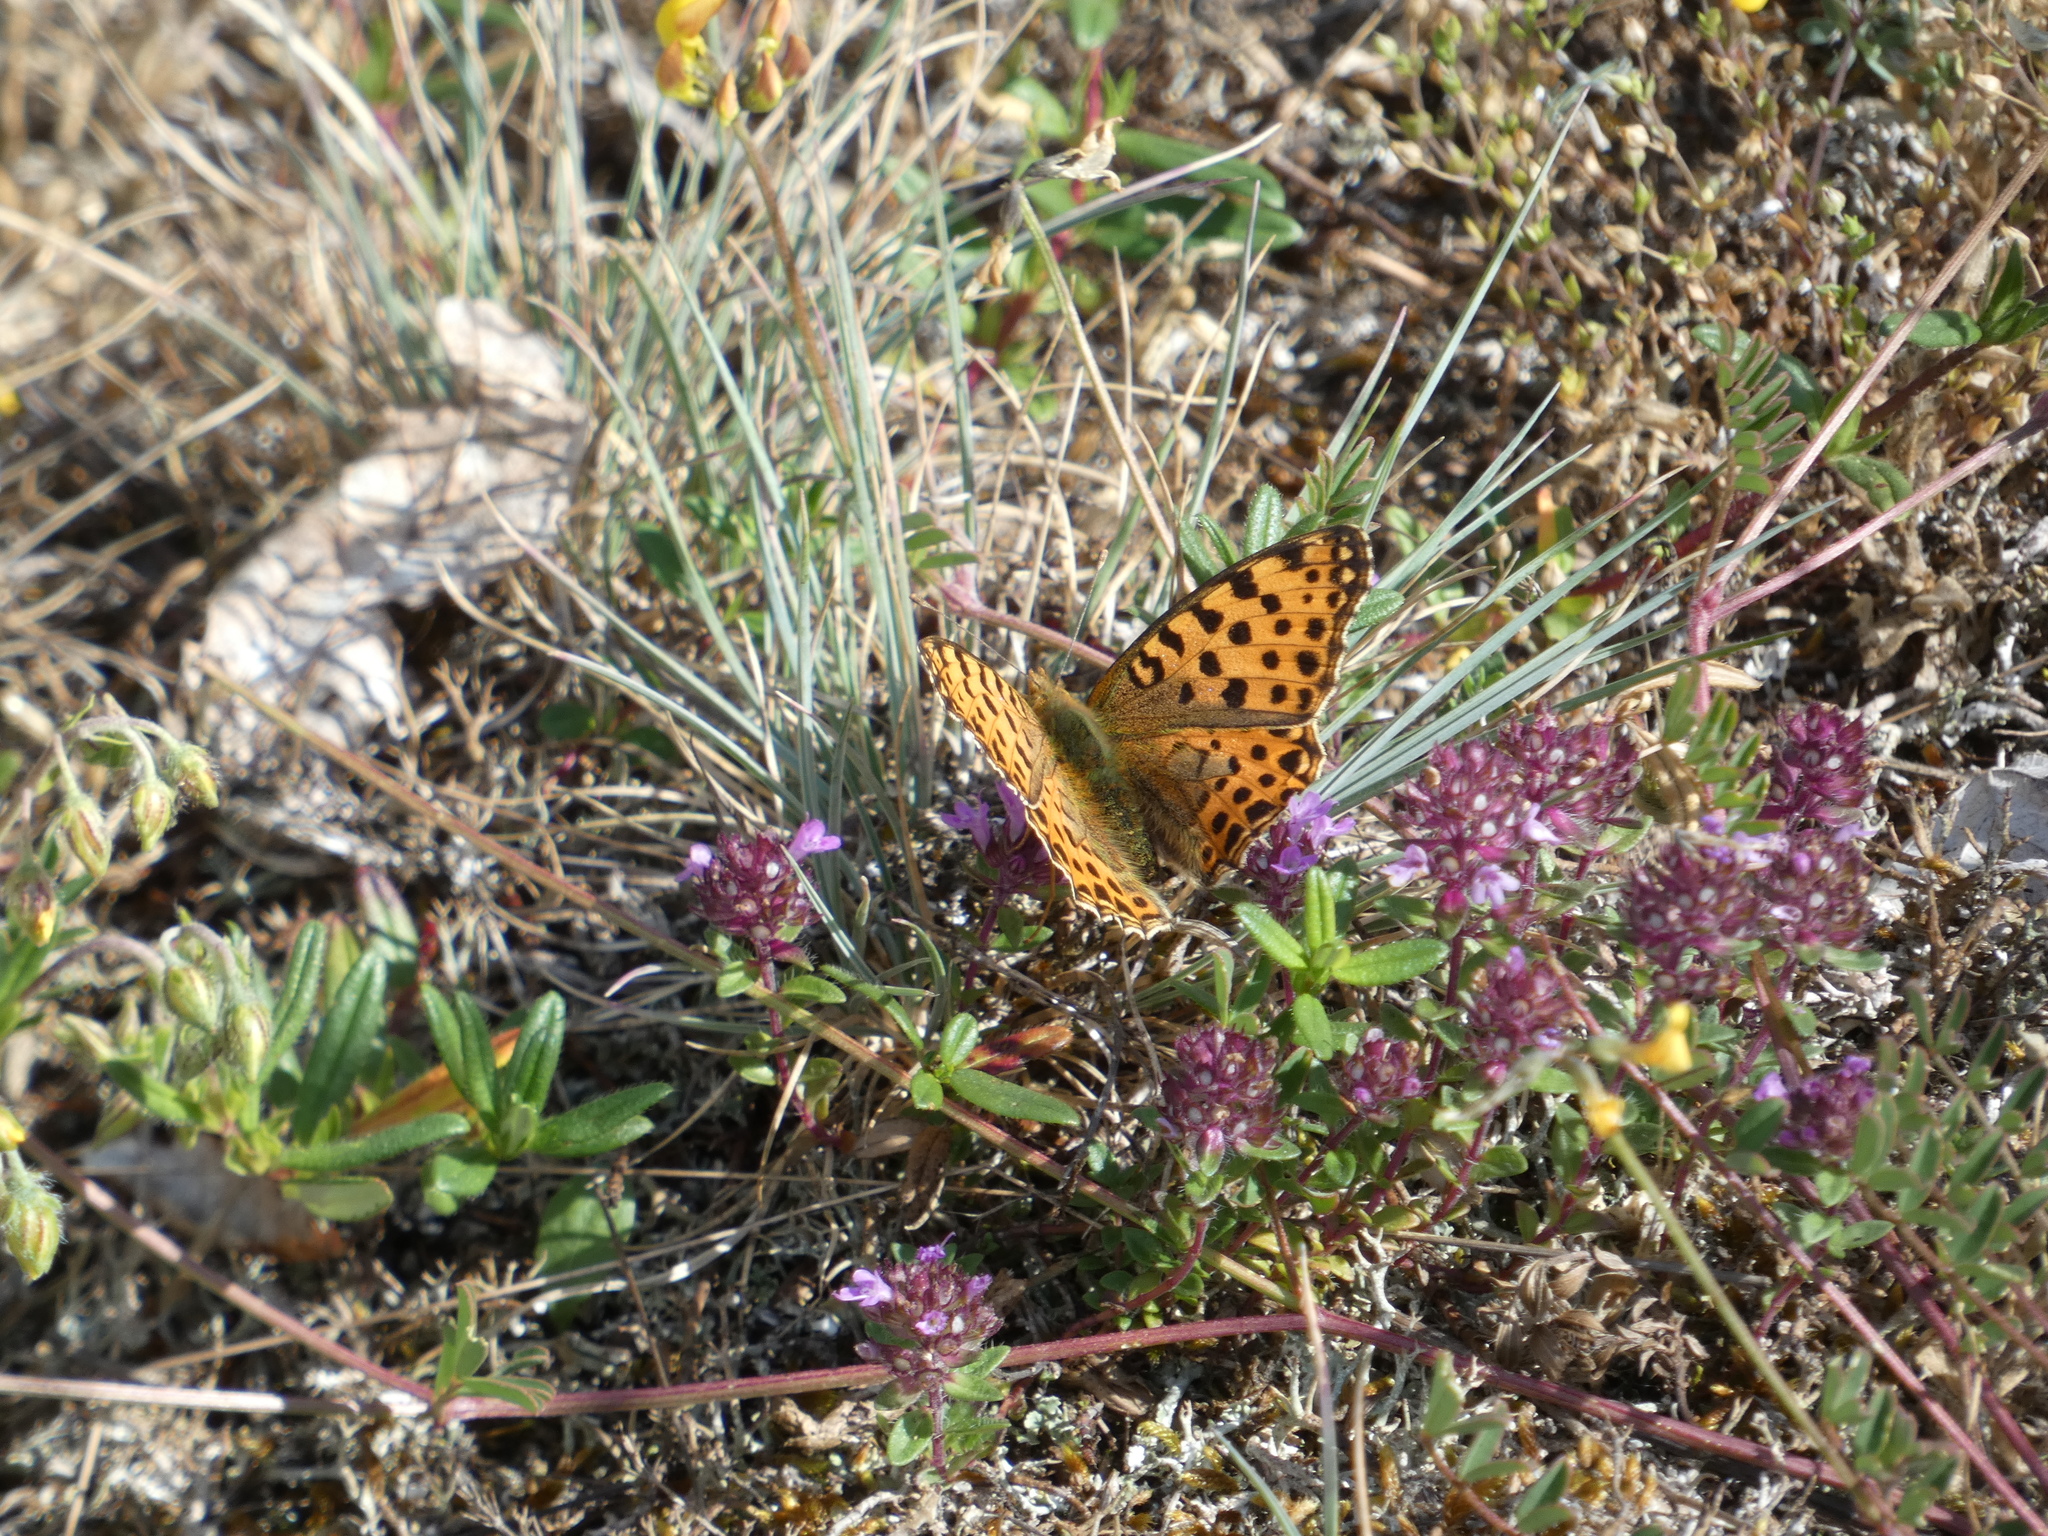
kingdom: Animalia
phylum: Arthropoda
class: Insecta
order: Lepidoptera
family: Nymphalidae
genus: Issoria
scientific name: Issoria lathonia
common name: Queen of spain fritillary
